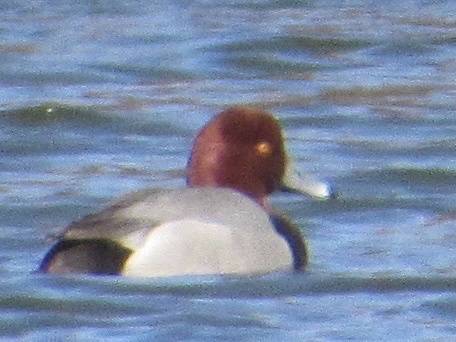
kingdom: Animalia
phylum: Chordata
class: Aves
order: Anseriformes
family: Anatidae
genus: Aythya
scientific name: Aythya americana
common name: Redhead
